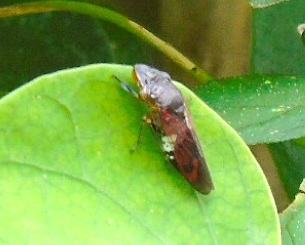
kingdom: Animalia
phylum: Arthropoda
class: Insecta
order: Hemiptera
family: Cicadellidae
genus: Homalodisca
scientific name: Homalodisca ichthyocephala
